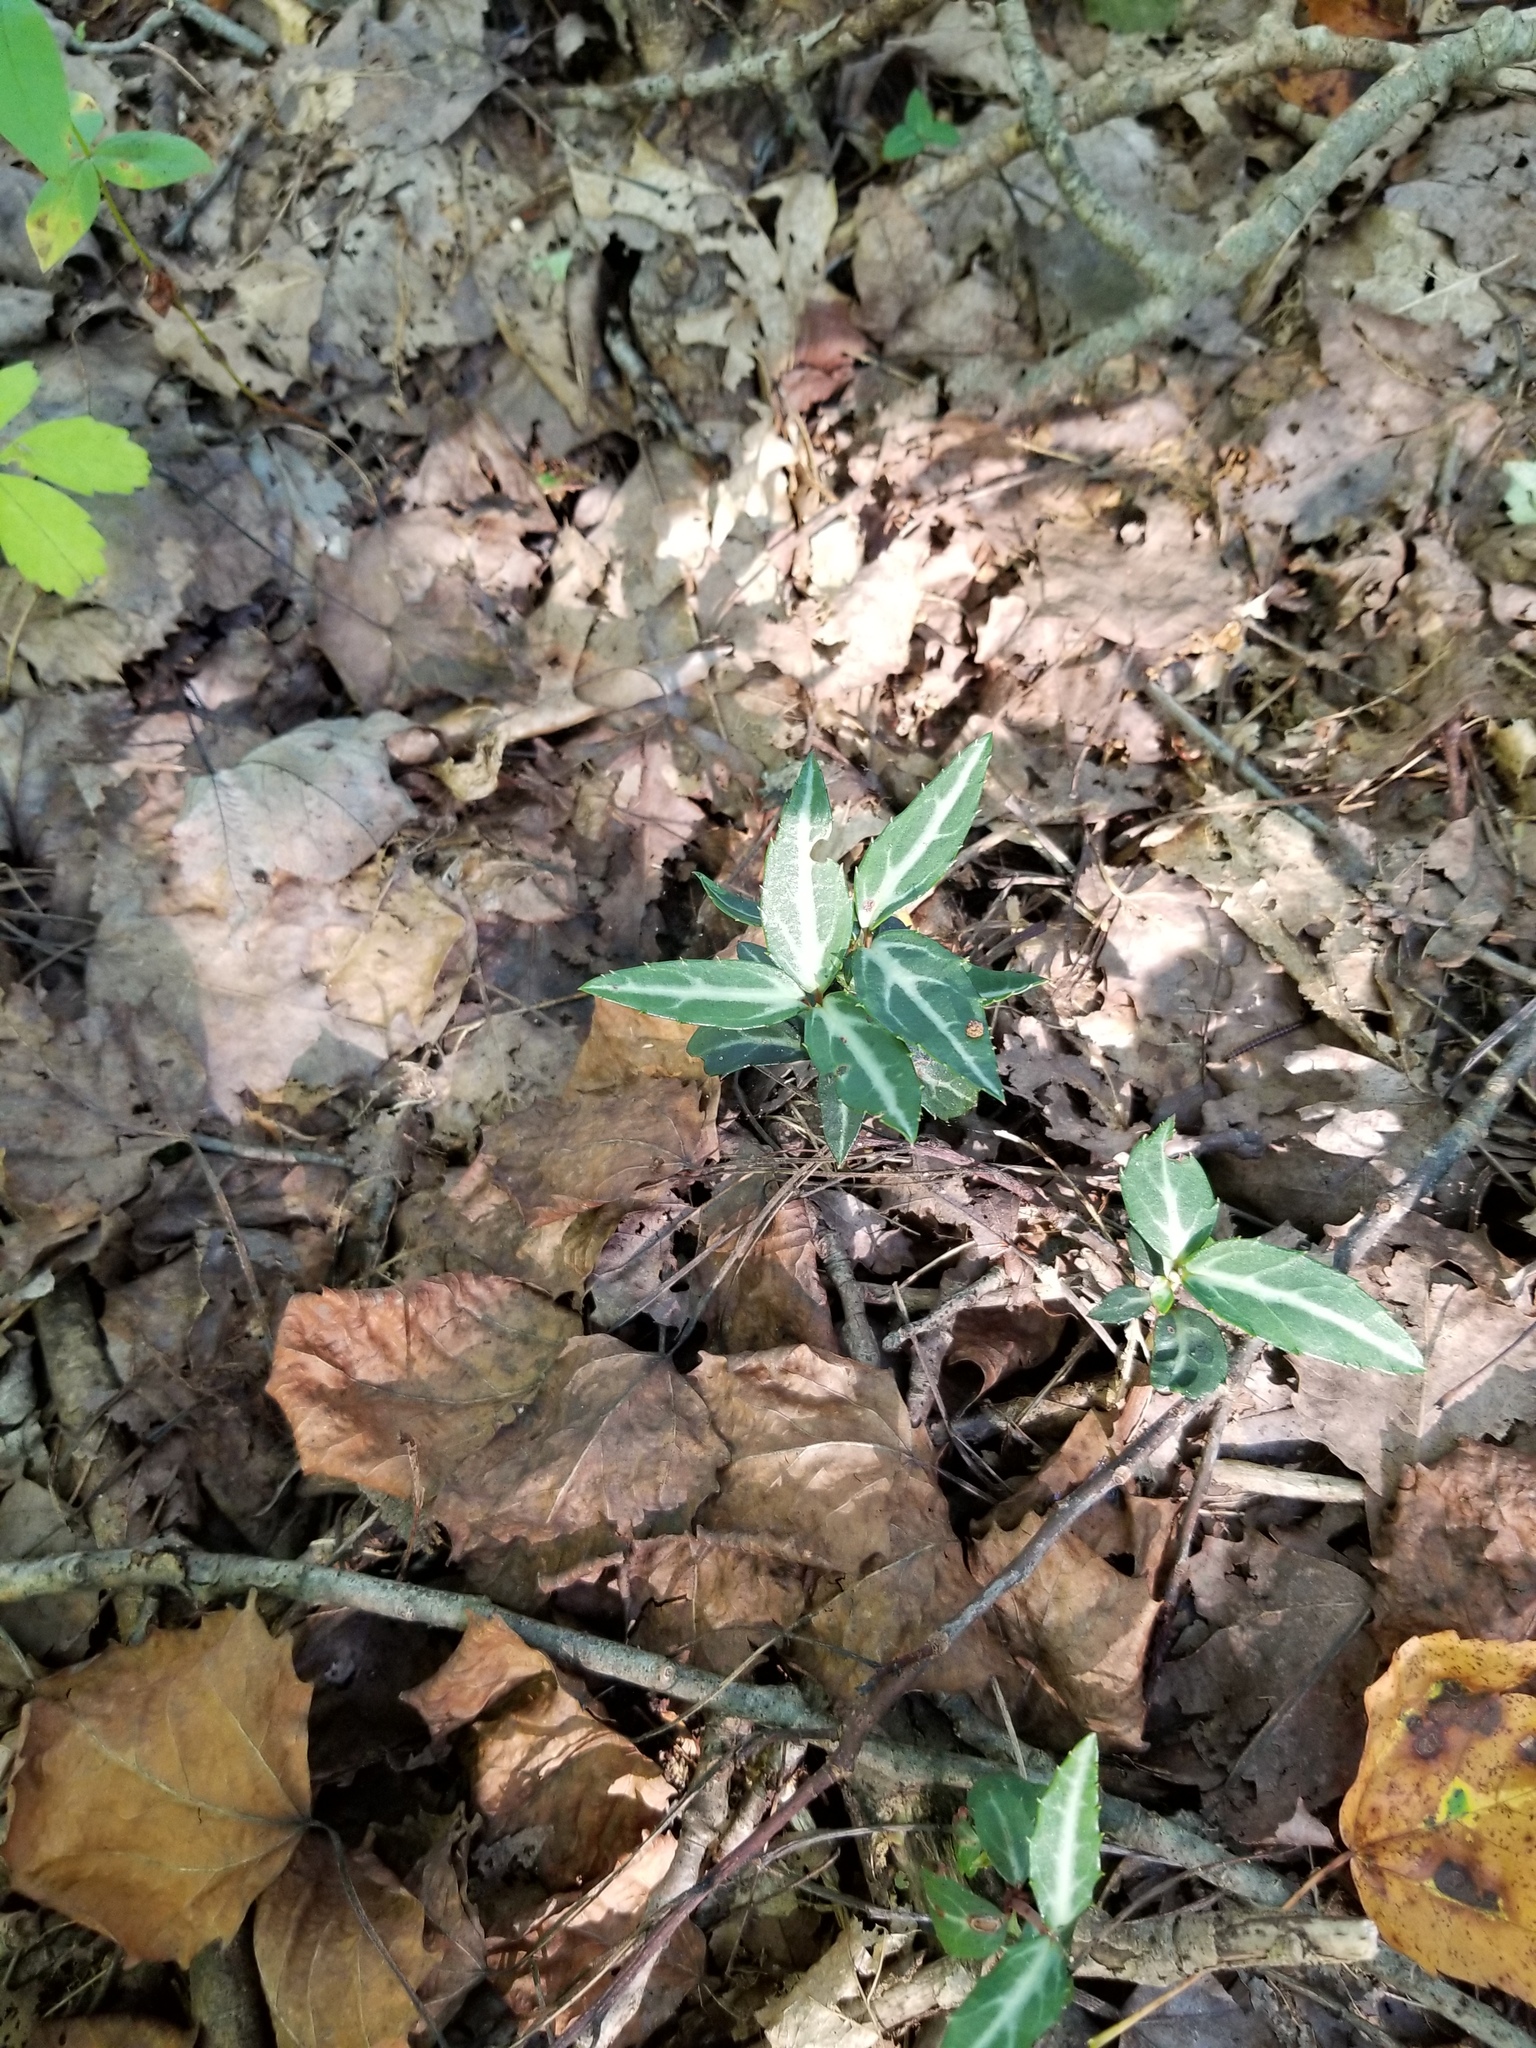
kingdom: Plantae
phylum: Tracheophyta
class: Magnoliopsida
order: Ericales
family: Ericaceae
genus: Chimaphila
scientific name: Chimaphila maculata
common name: Spotted pipsissewa
